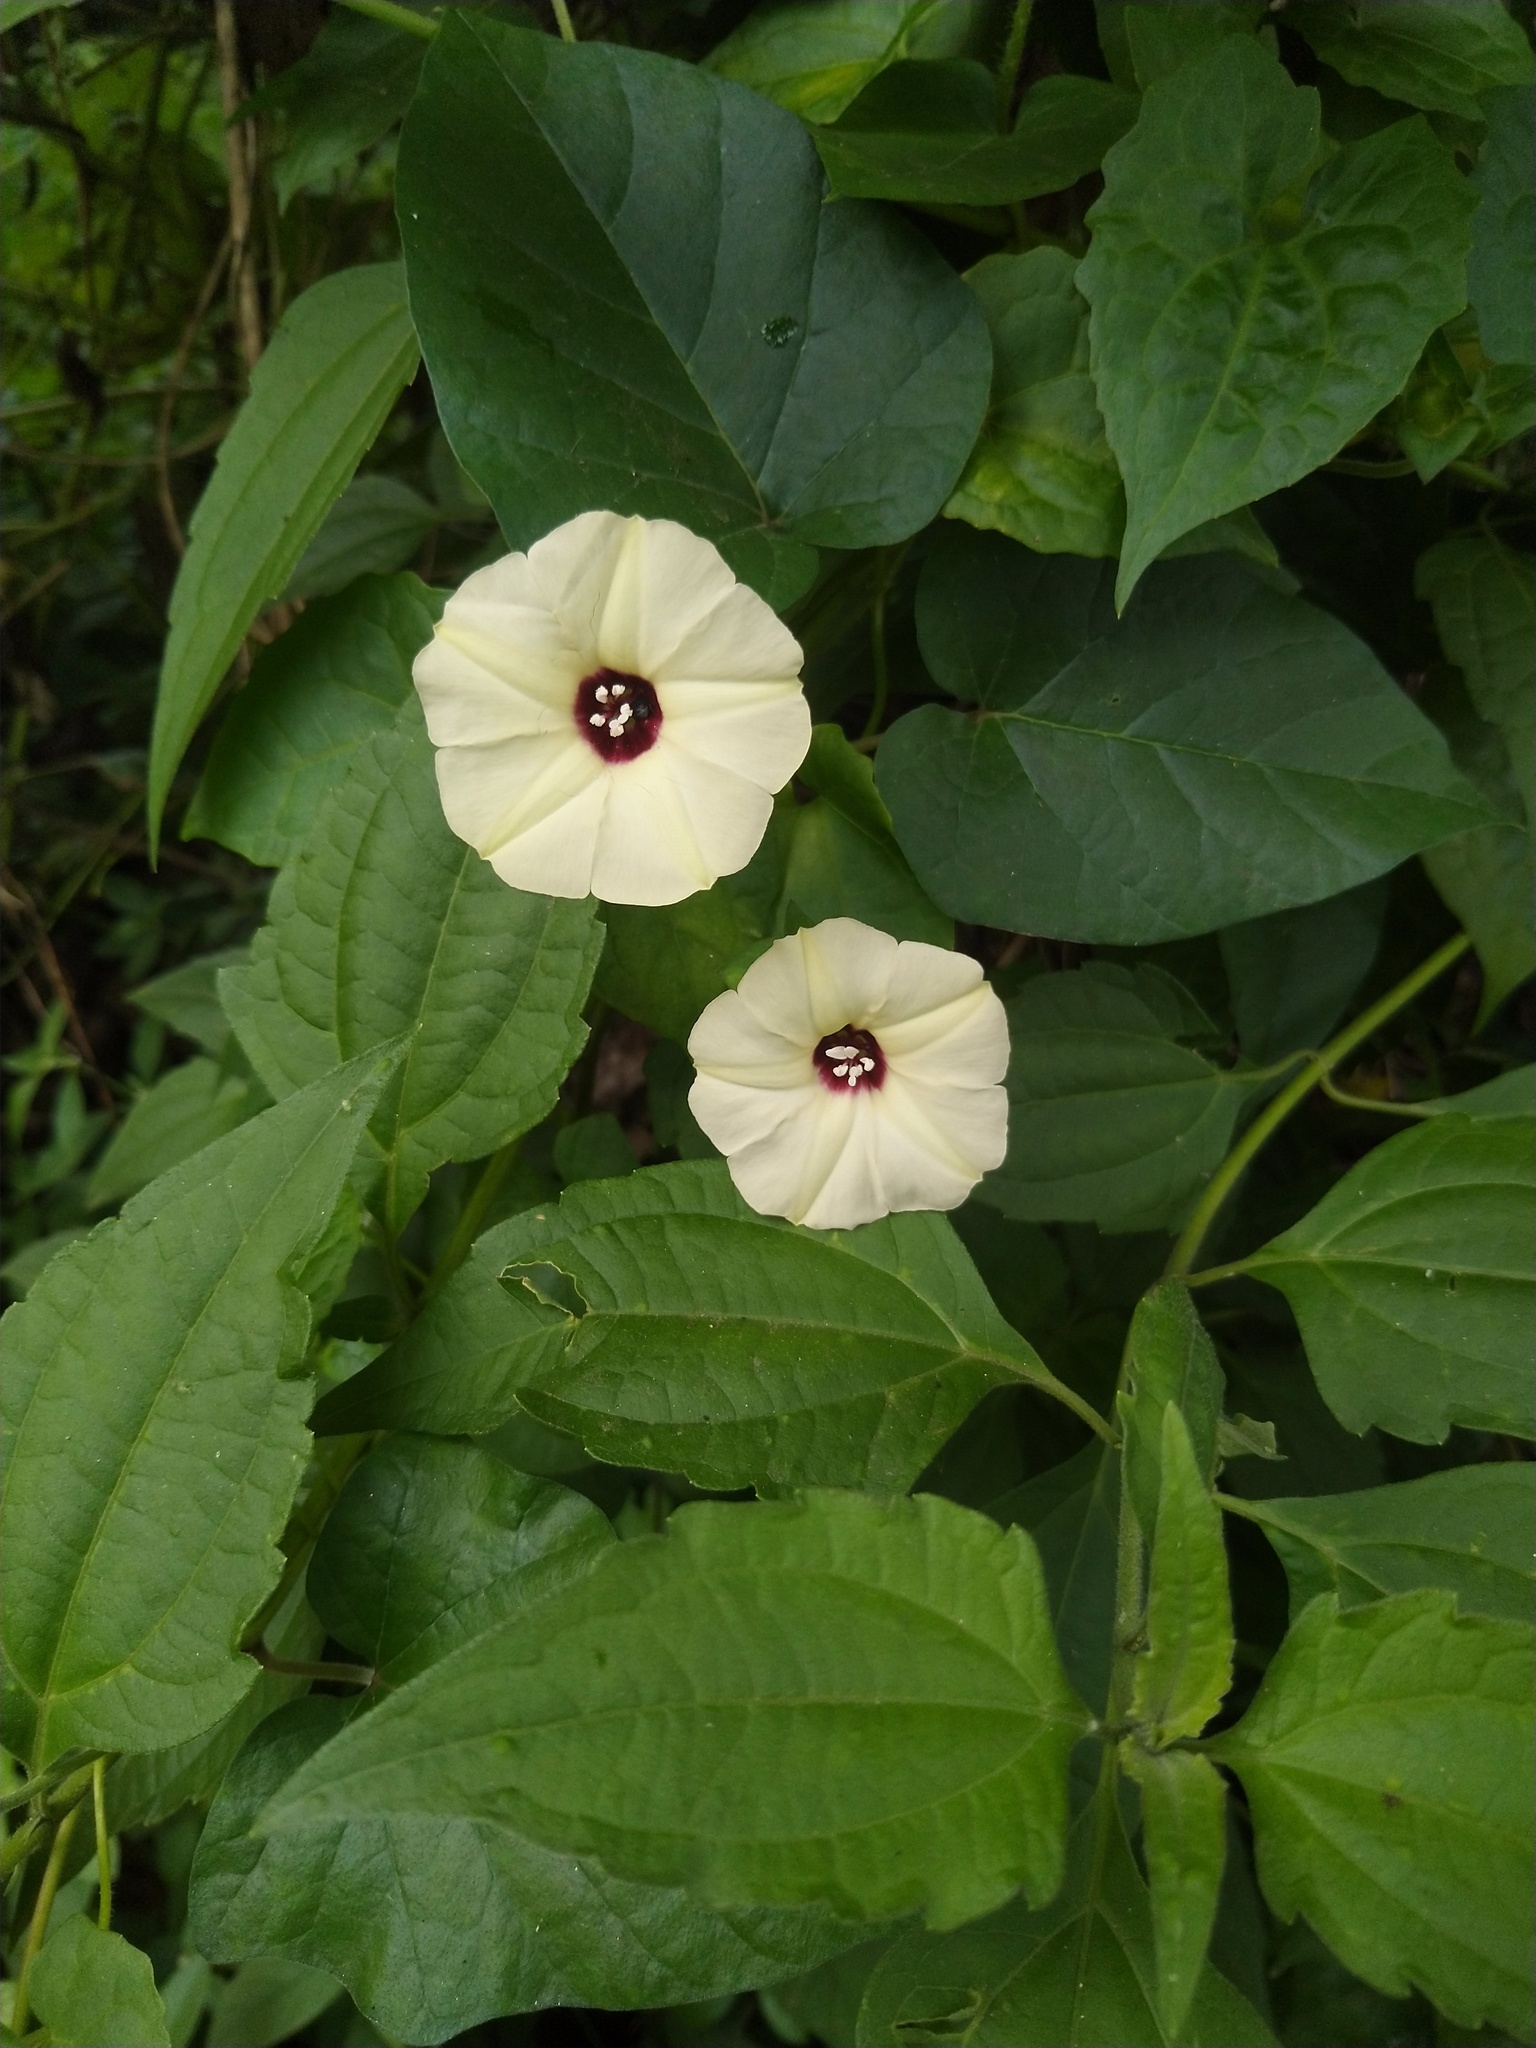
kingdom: Plantae
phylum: Tracheophyta
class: Magnoliopsida
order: Solanales
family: Convolvulaceae
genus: Ipomoea
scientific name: Ipomoea obscura
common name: Obscure morning-glory
